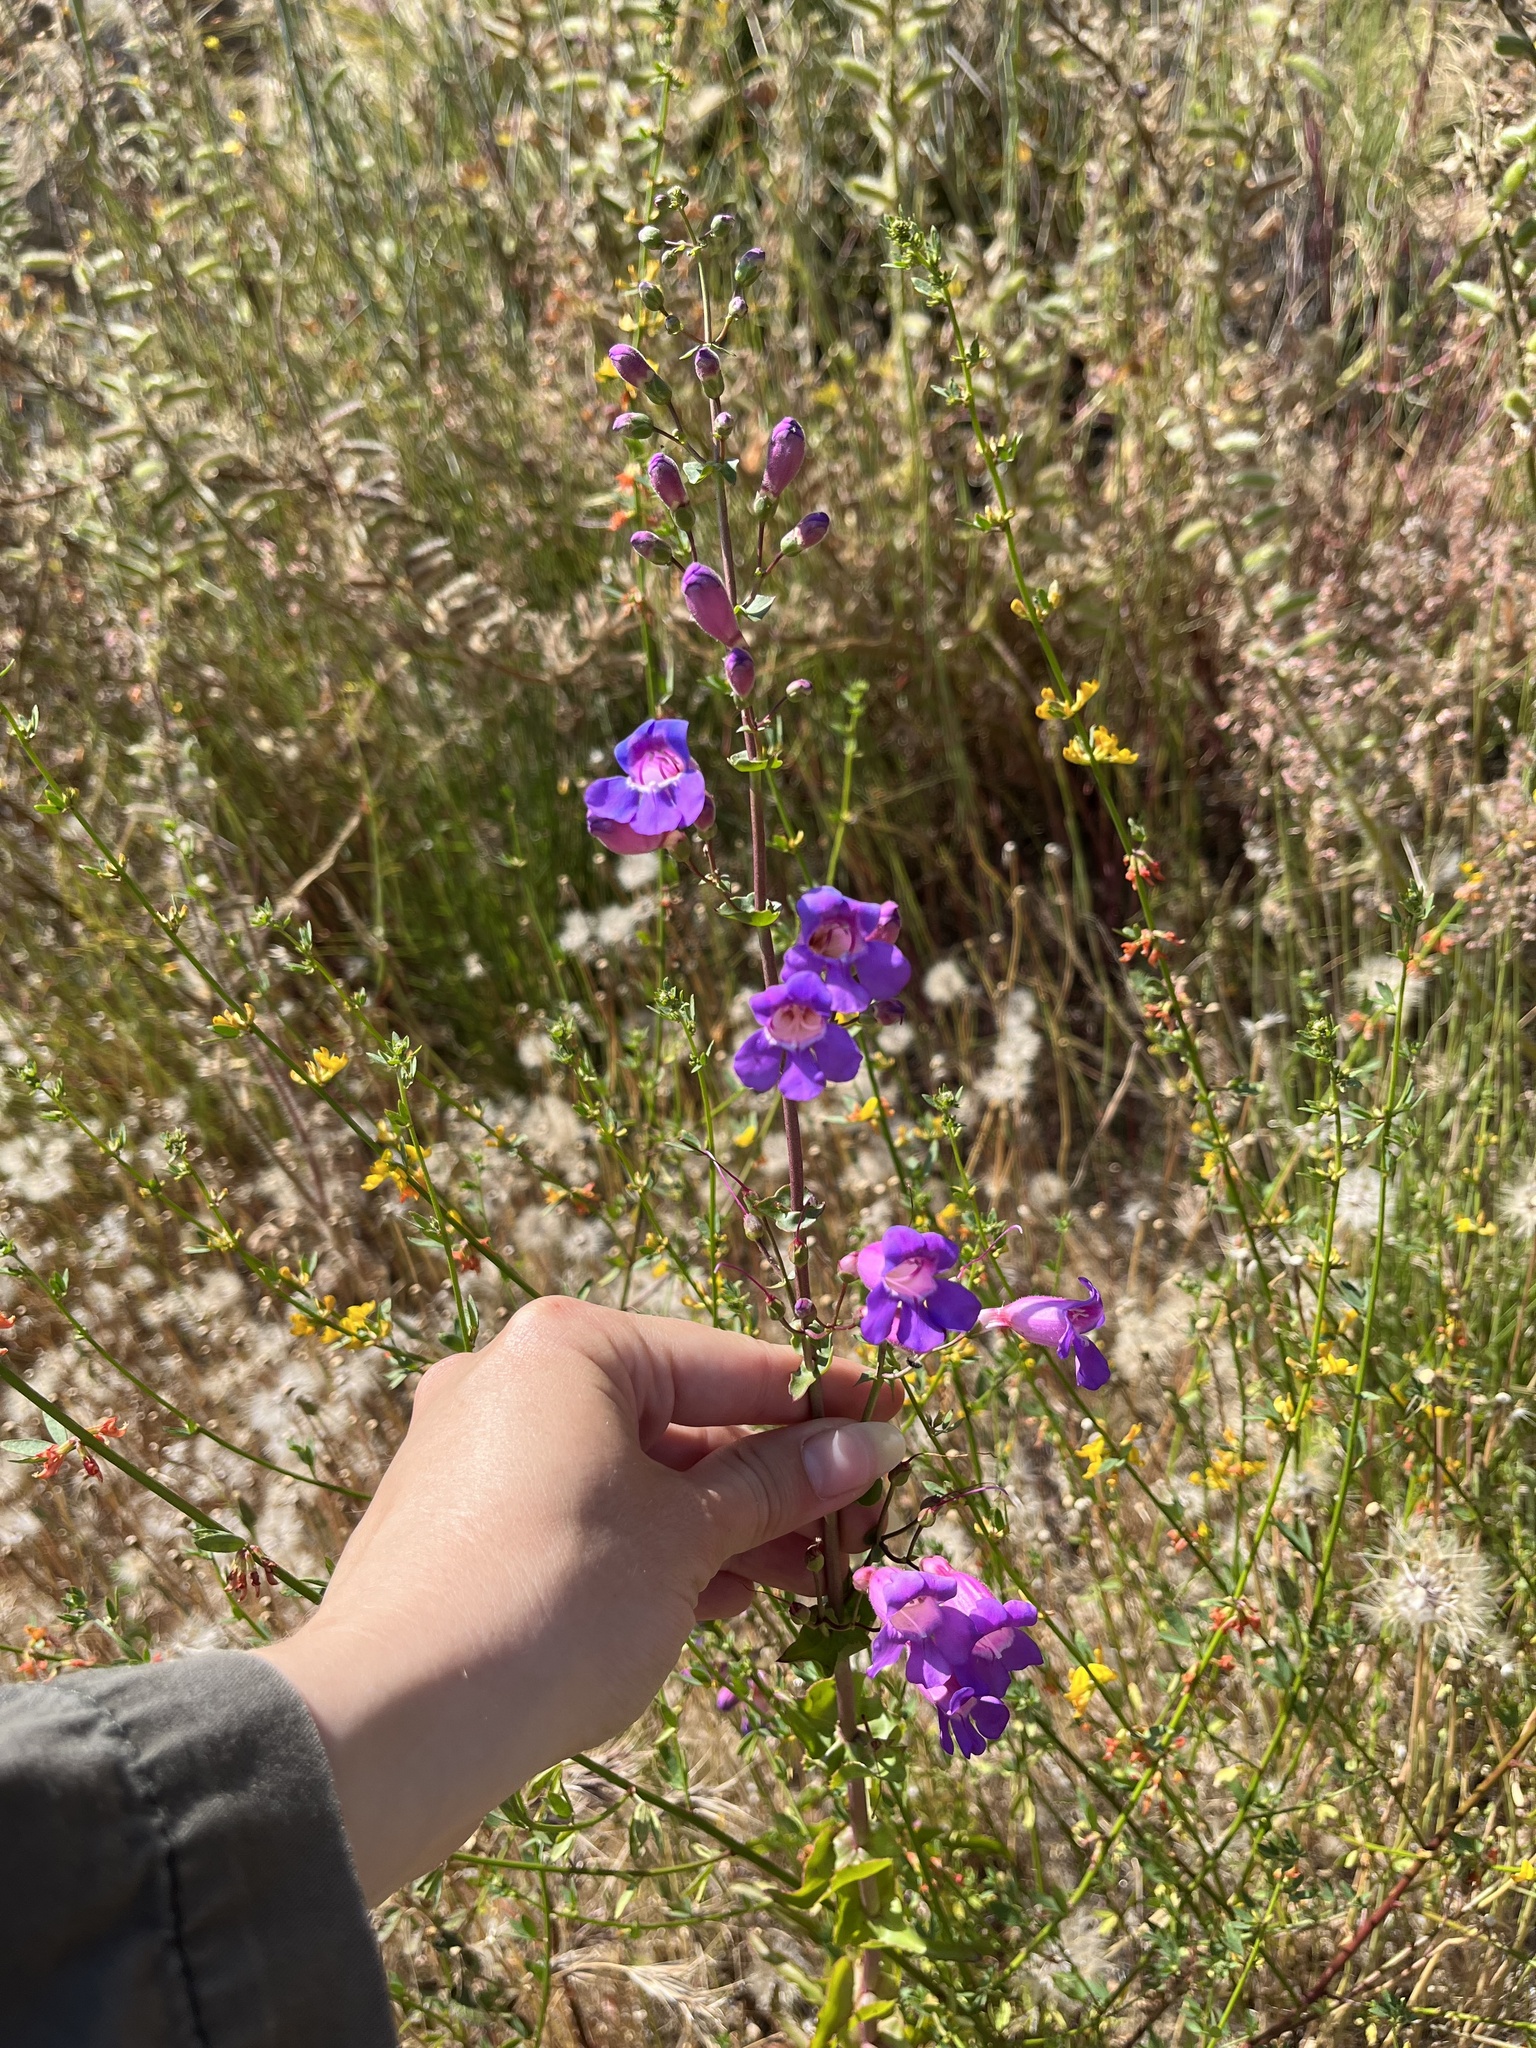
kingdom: Plantae
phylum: Tracheophyta
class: Magnoliopsida
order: Lamiales
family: Plantaginaceae
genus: Penstemon
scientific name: Penstemon spectabilis
